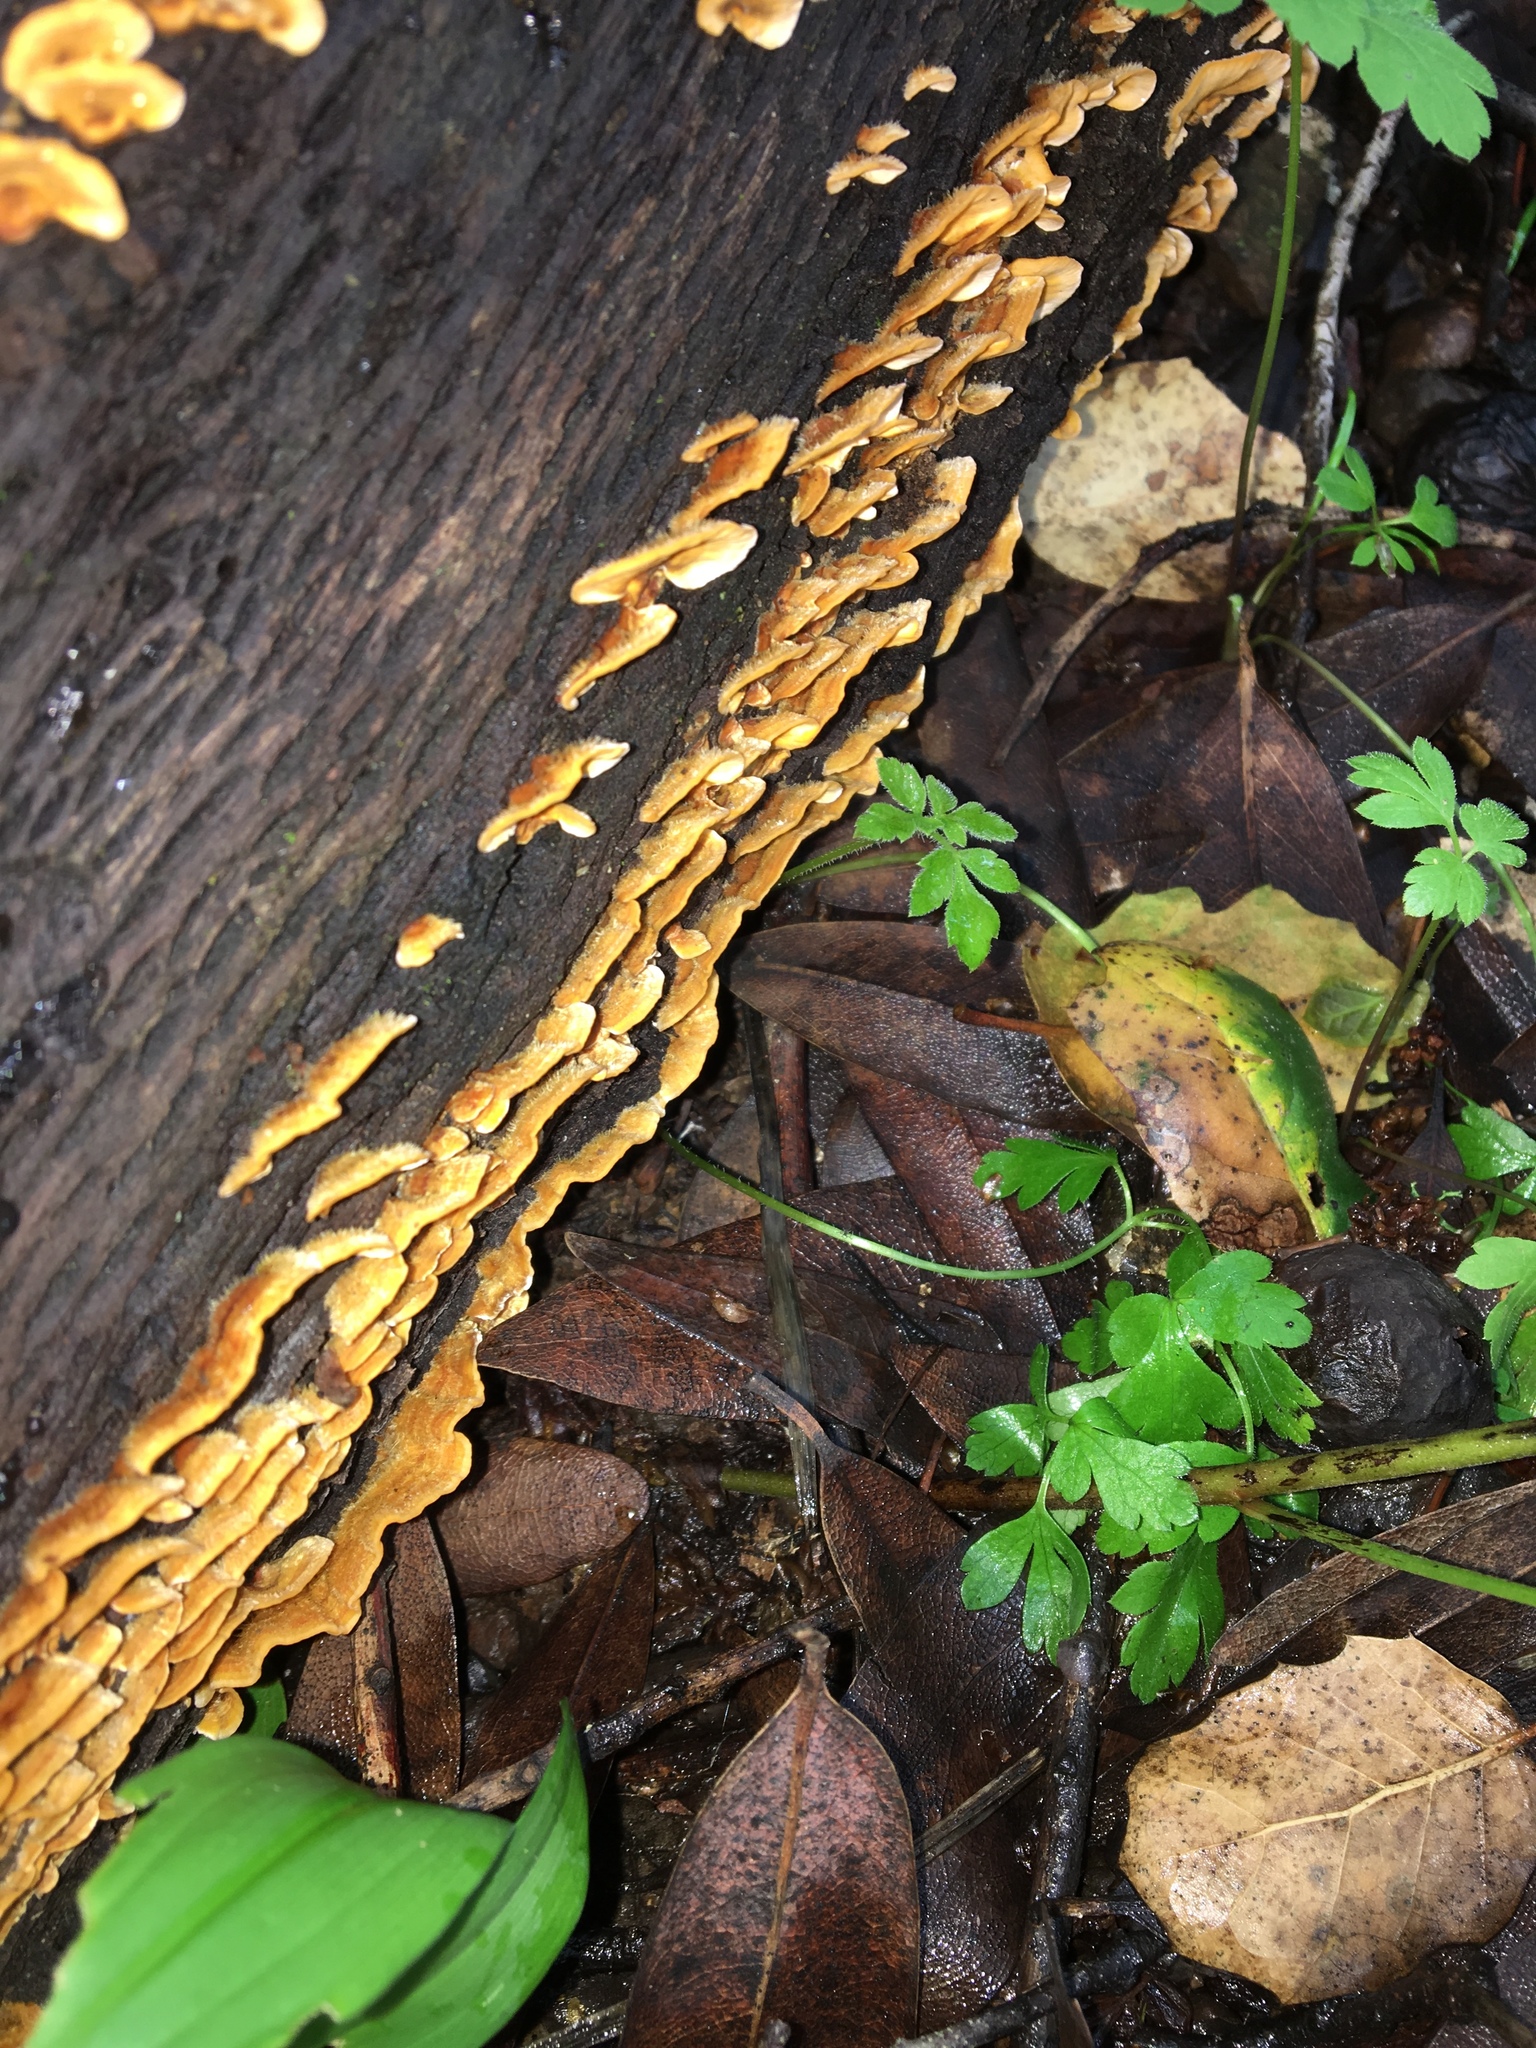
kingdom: Fungi
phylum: Basidiomycota
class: Agaricomycetes
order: Russulales
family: Stereaceae
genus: Stereum
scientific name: Stereum hirsutum
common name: Hairy curtain crust
